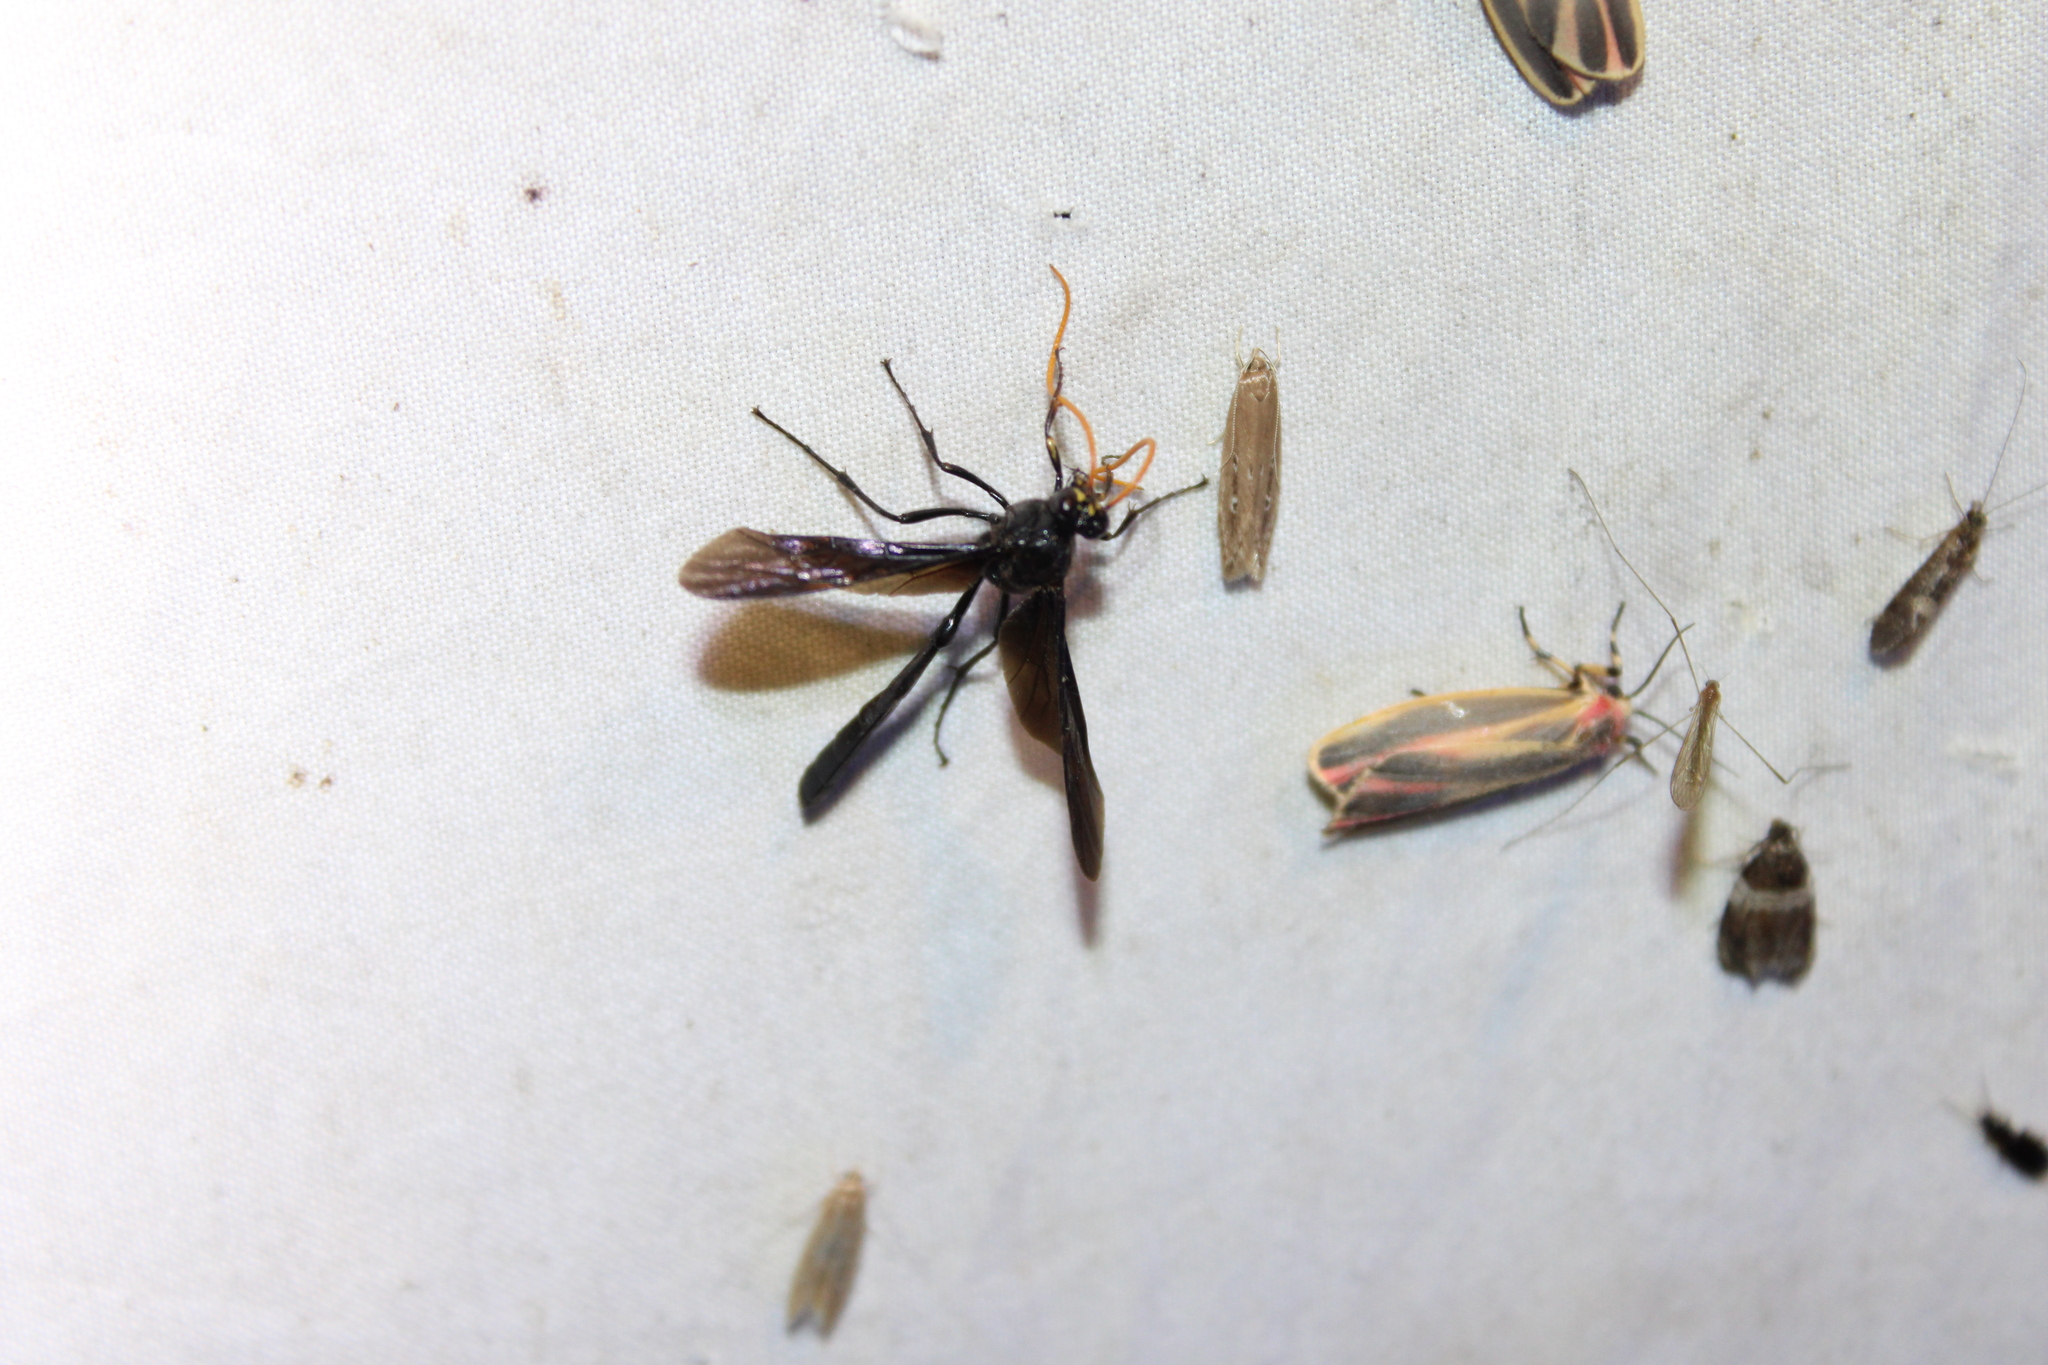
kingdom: Animalia
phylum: Arthropoda
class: Insecta
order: Hymenoptera
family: Ichneumonidae
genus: Thyreodon
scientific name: Thyreodon atricolor
